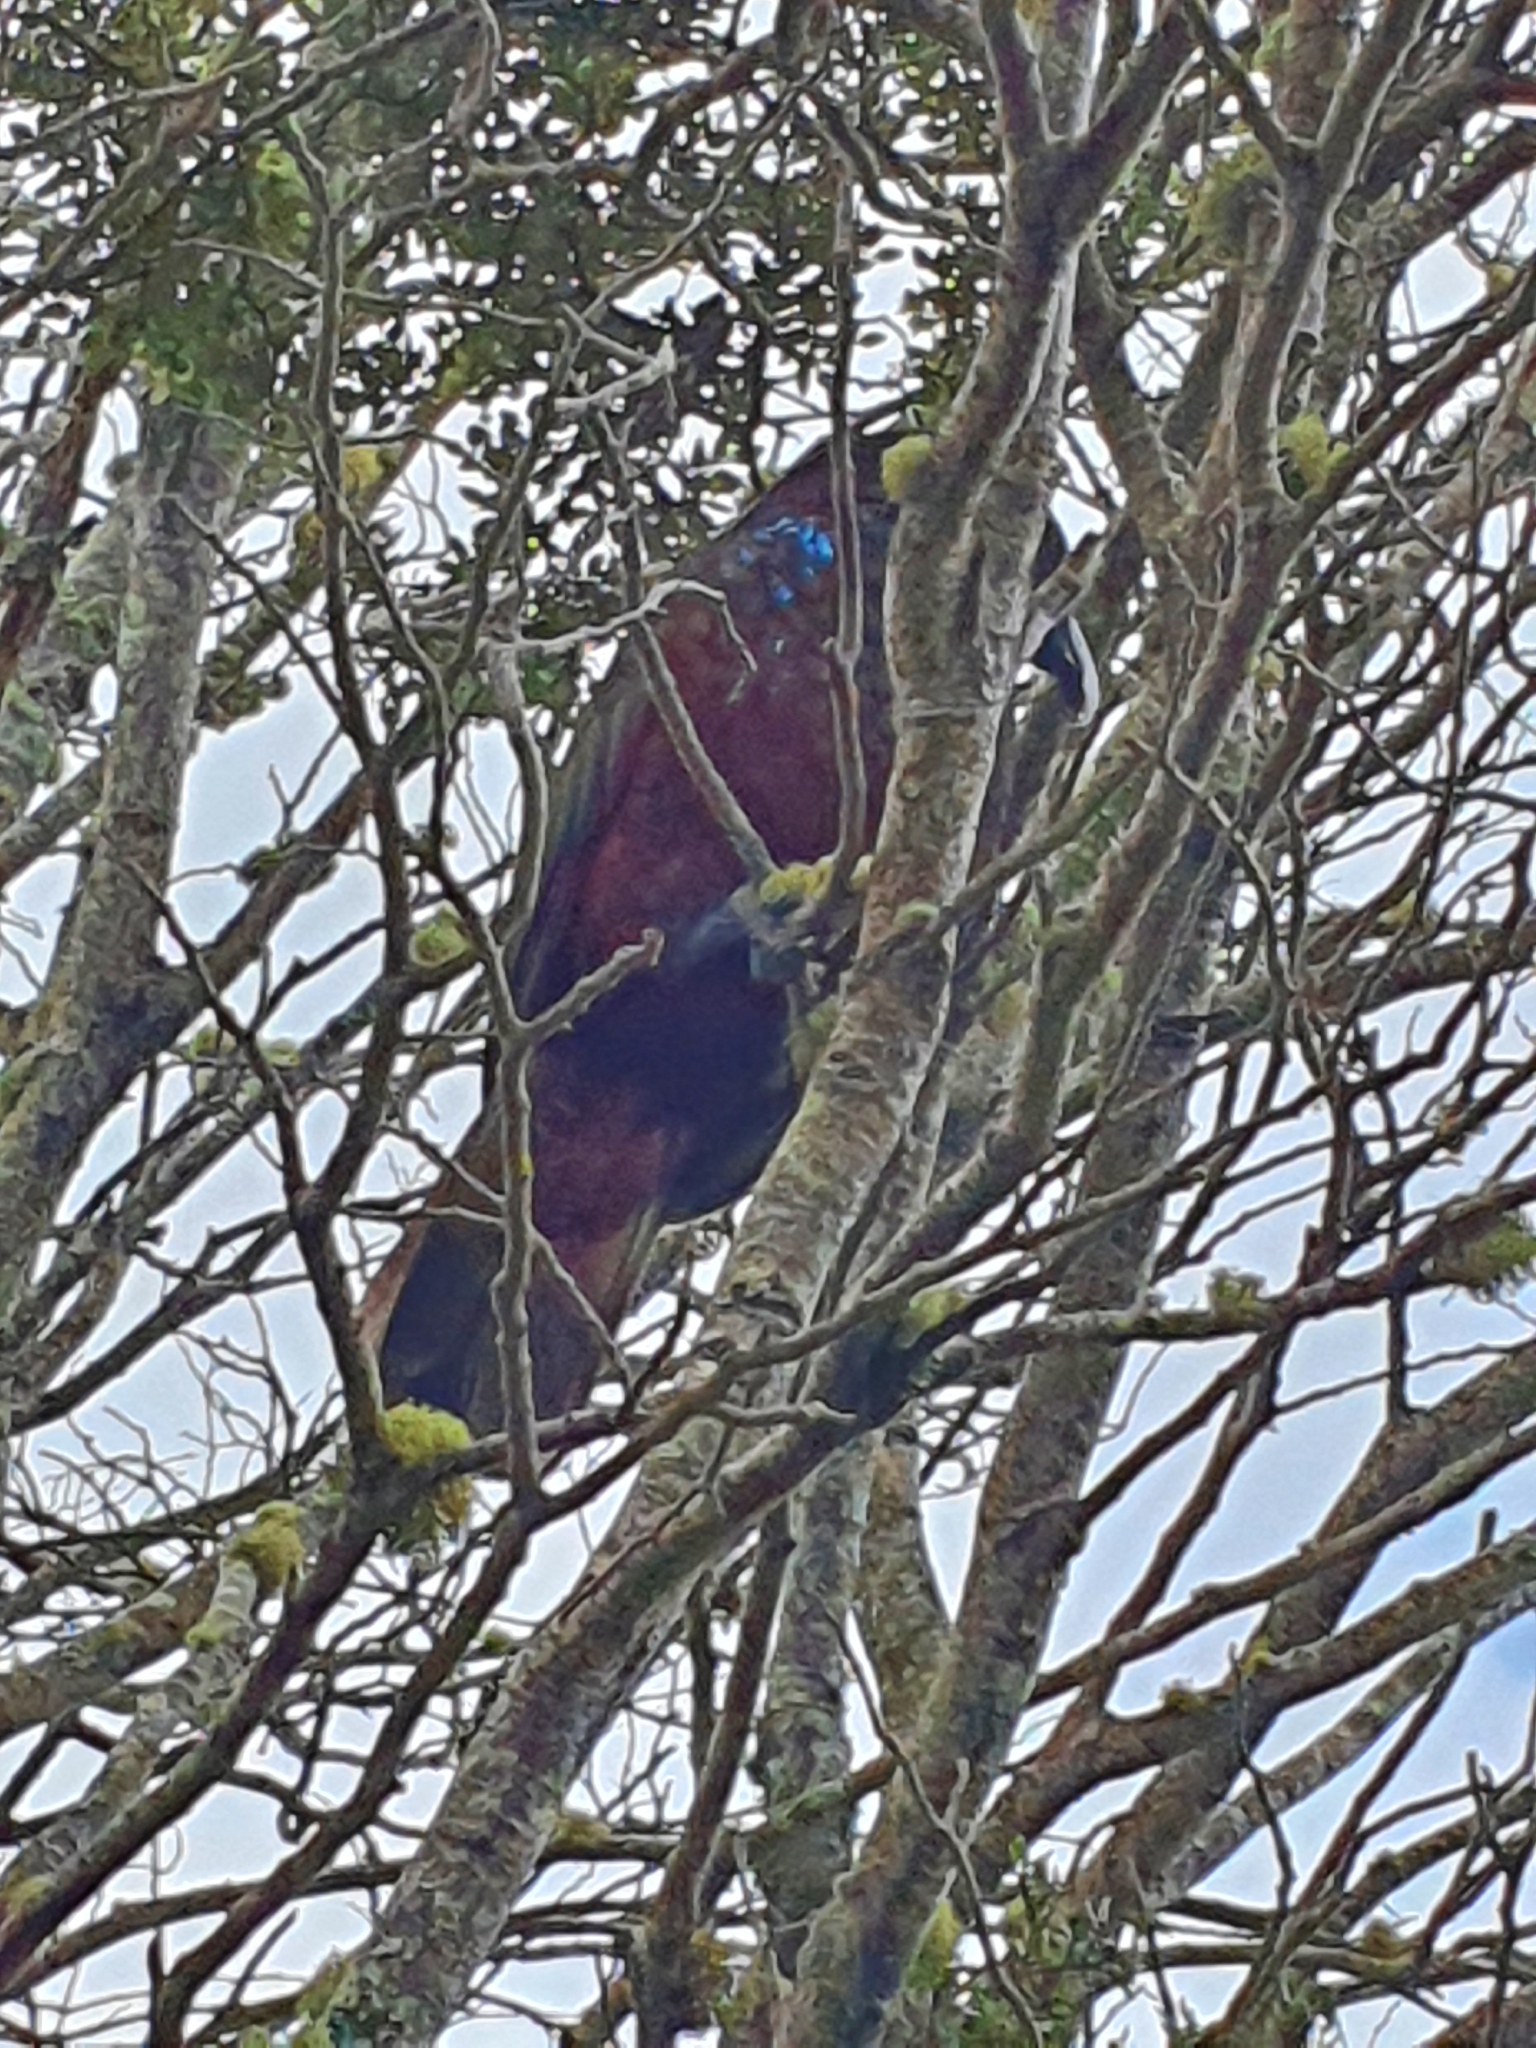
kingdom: Animalia
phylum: Chordata
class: Aves
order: Psittaciformes
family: Psittacidae
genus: Nestor
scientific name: Nestor meridionalis
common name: New zealand kaka
